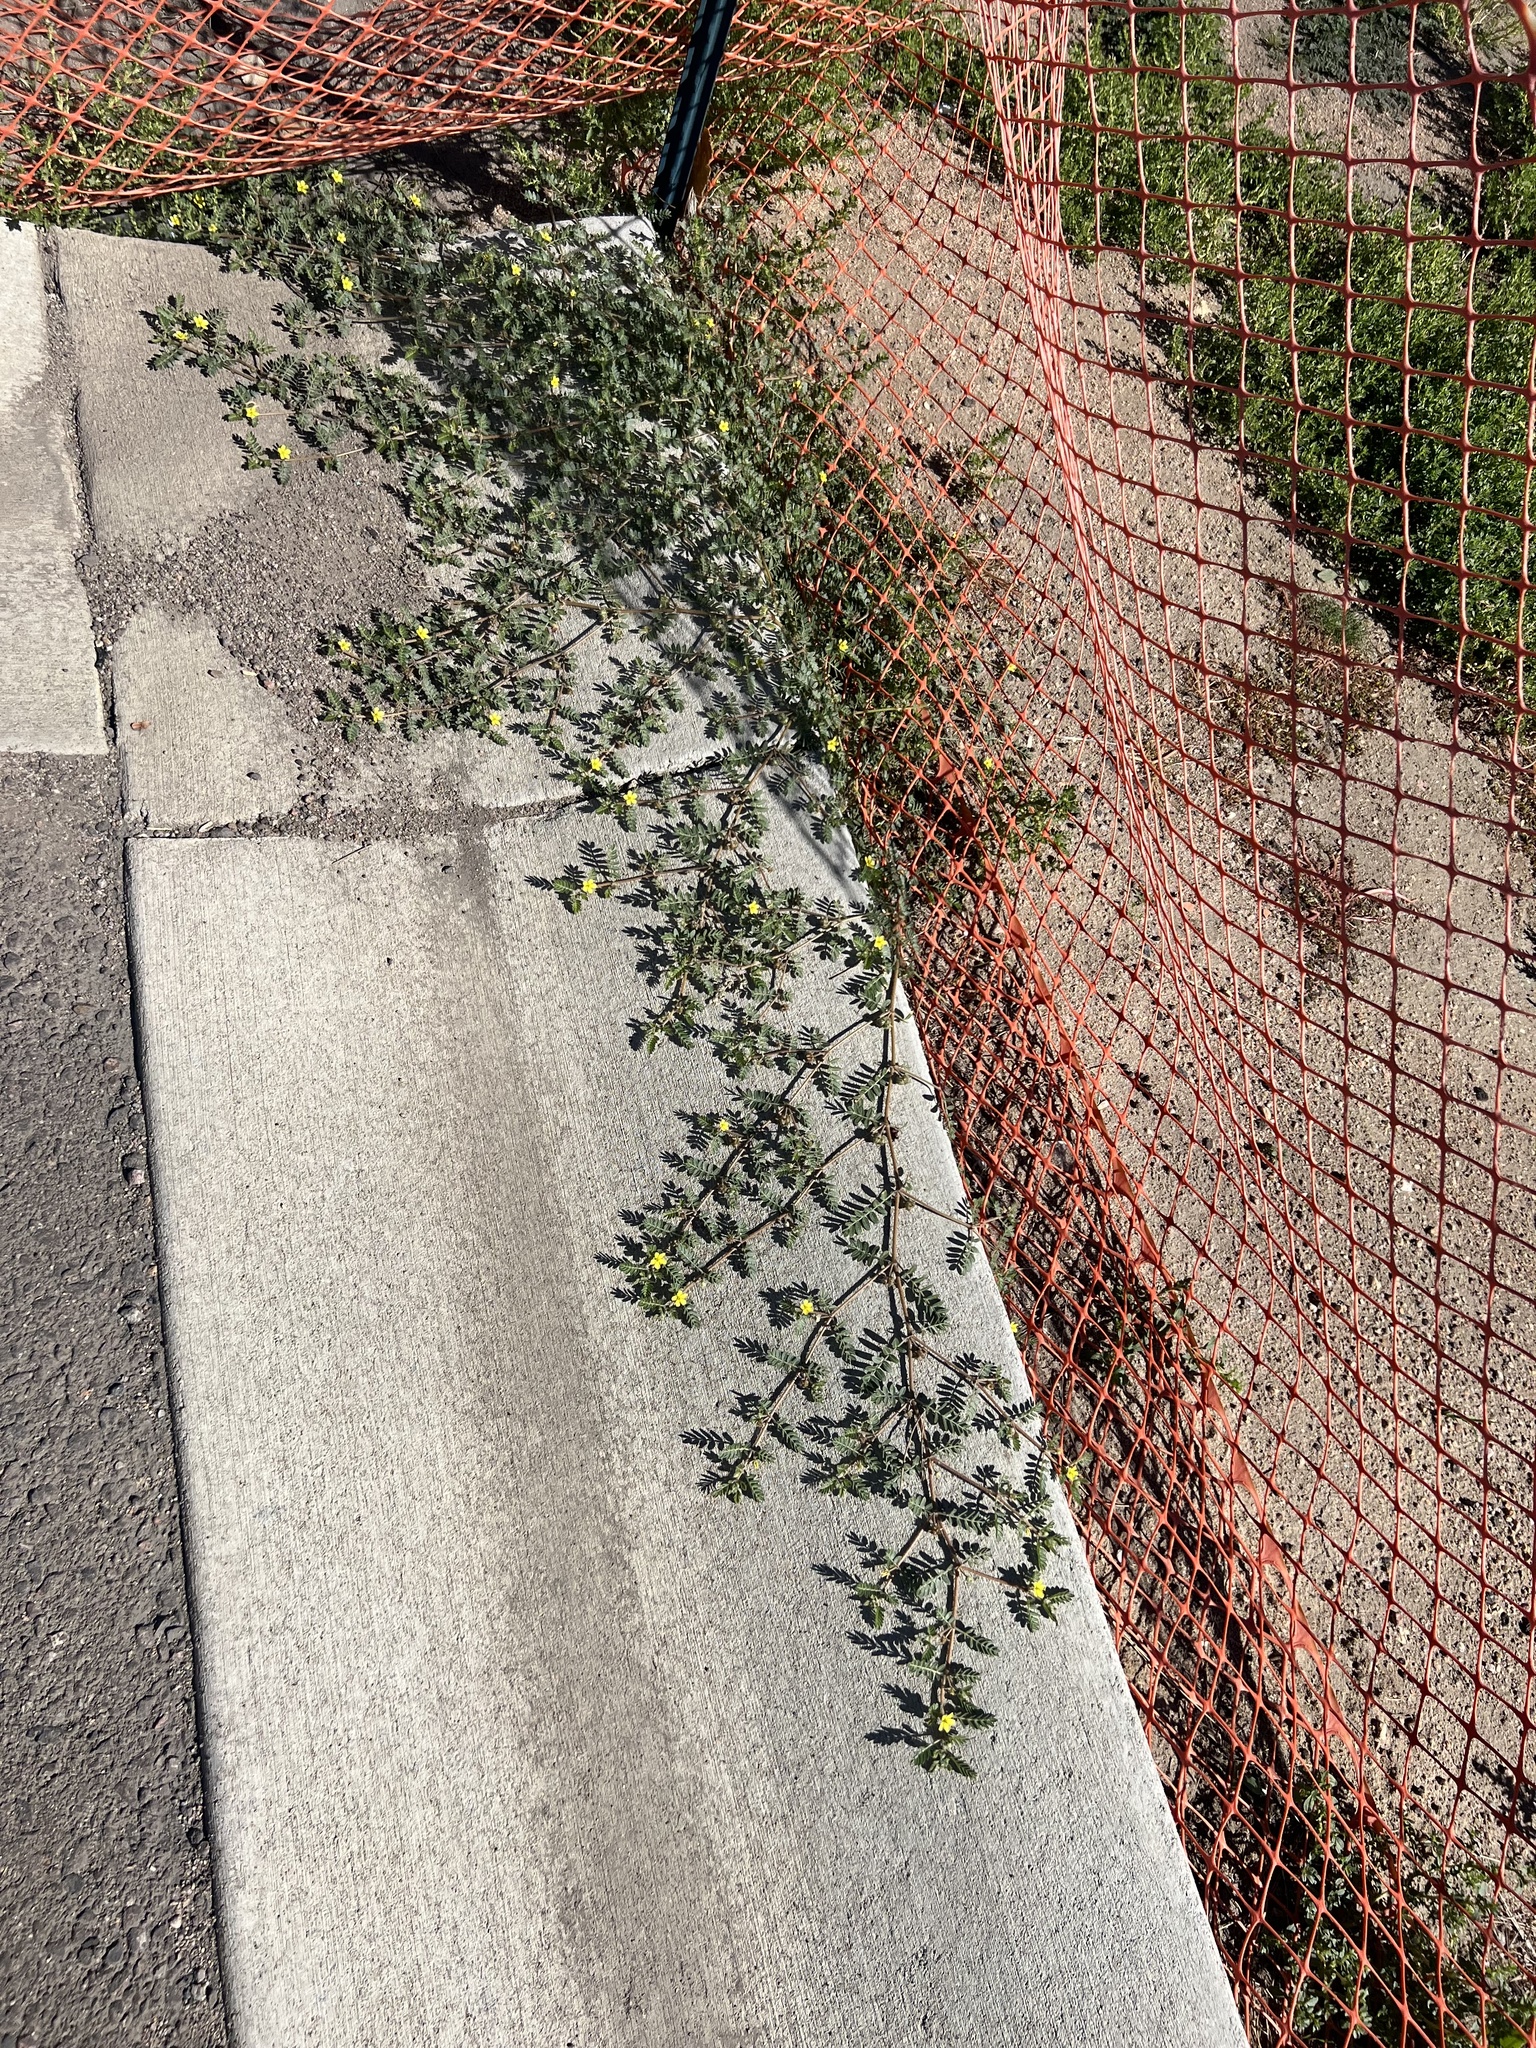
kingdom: Plantae
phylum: Tracheophyta
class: Magnoliopsida
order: Zygophyllales
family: Zygophyllaceae
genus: Tribulus
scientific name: Tribulus terrestris
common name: Puncturevine
